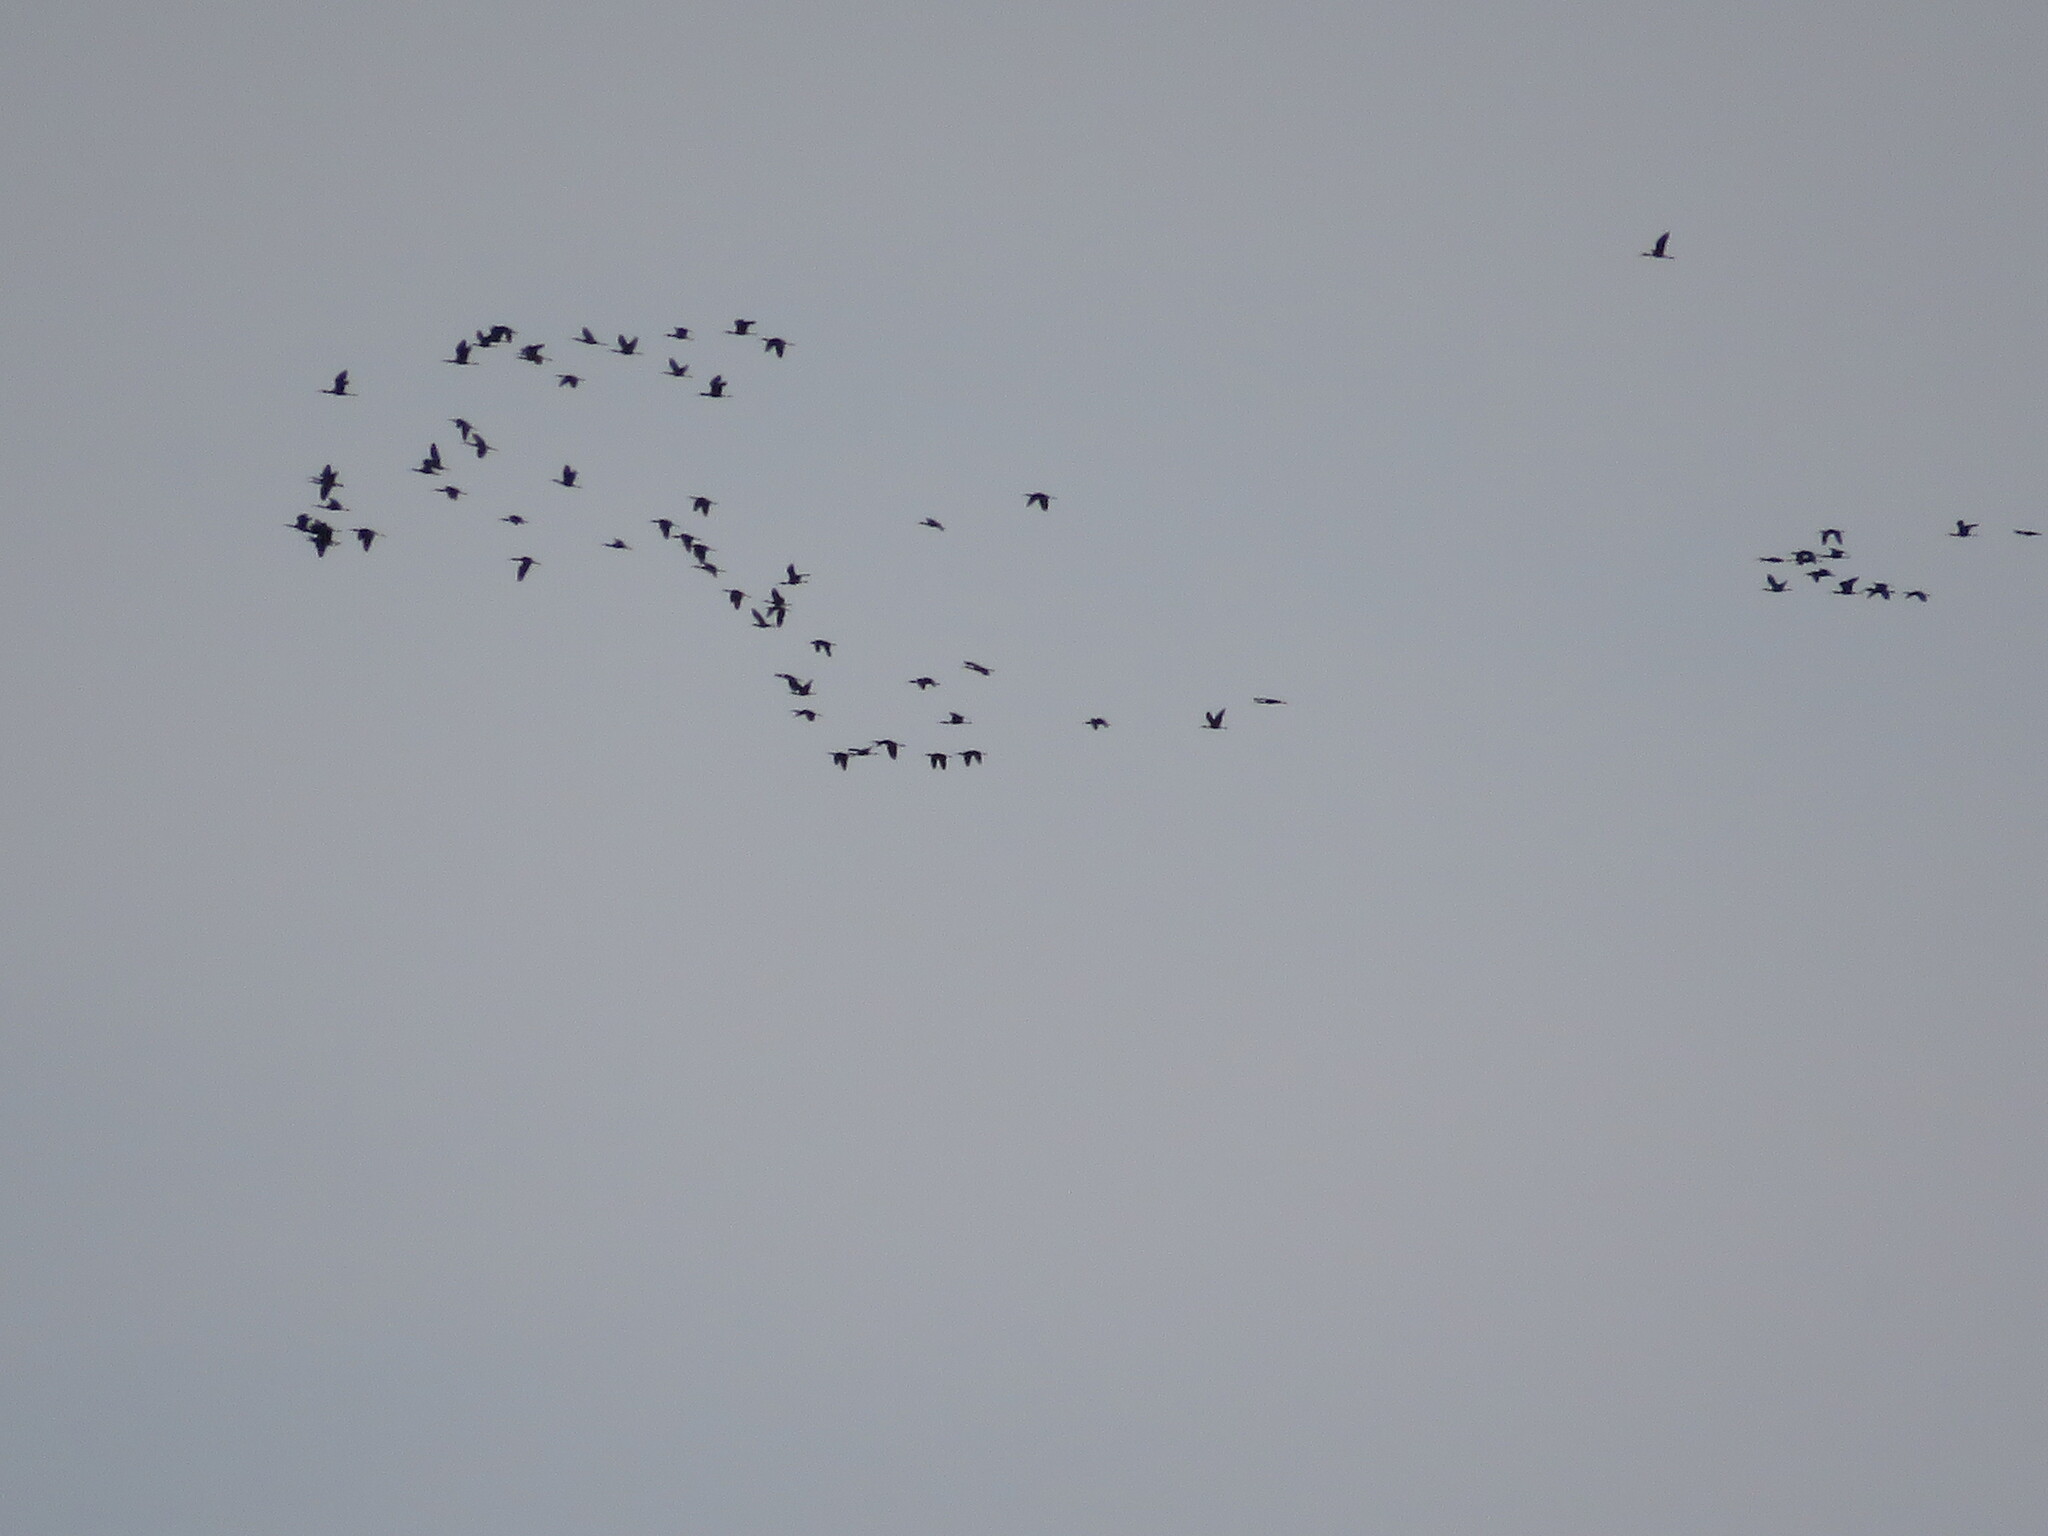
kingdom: Animalia
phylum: Chordata
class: Aves
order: Pelecaniformes
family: Threskiornithidae
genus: Plegadis
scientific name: Plegadis chihi
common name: White-faced ibis
